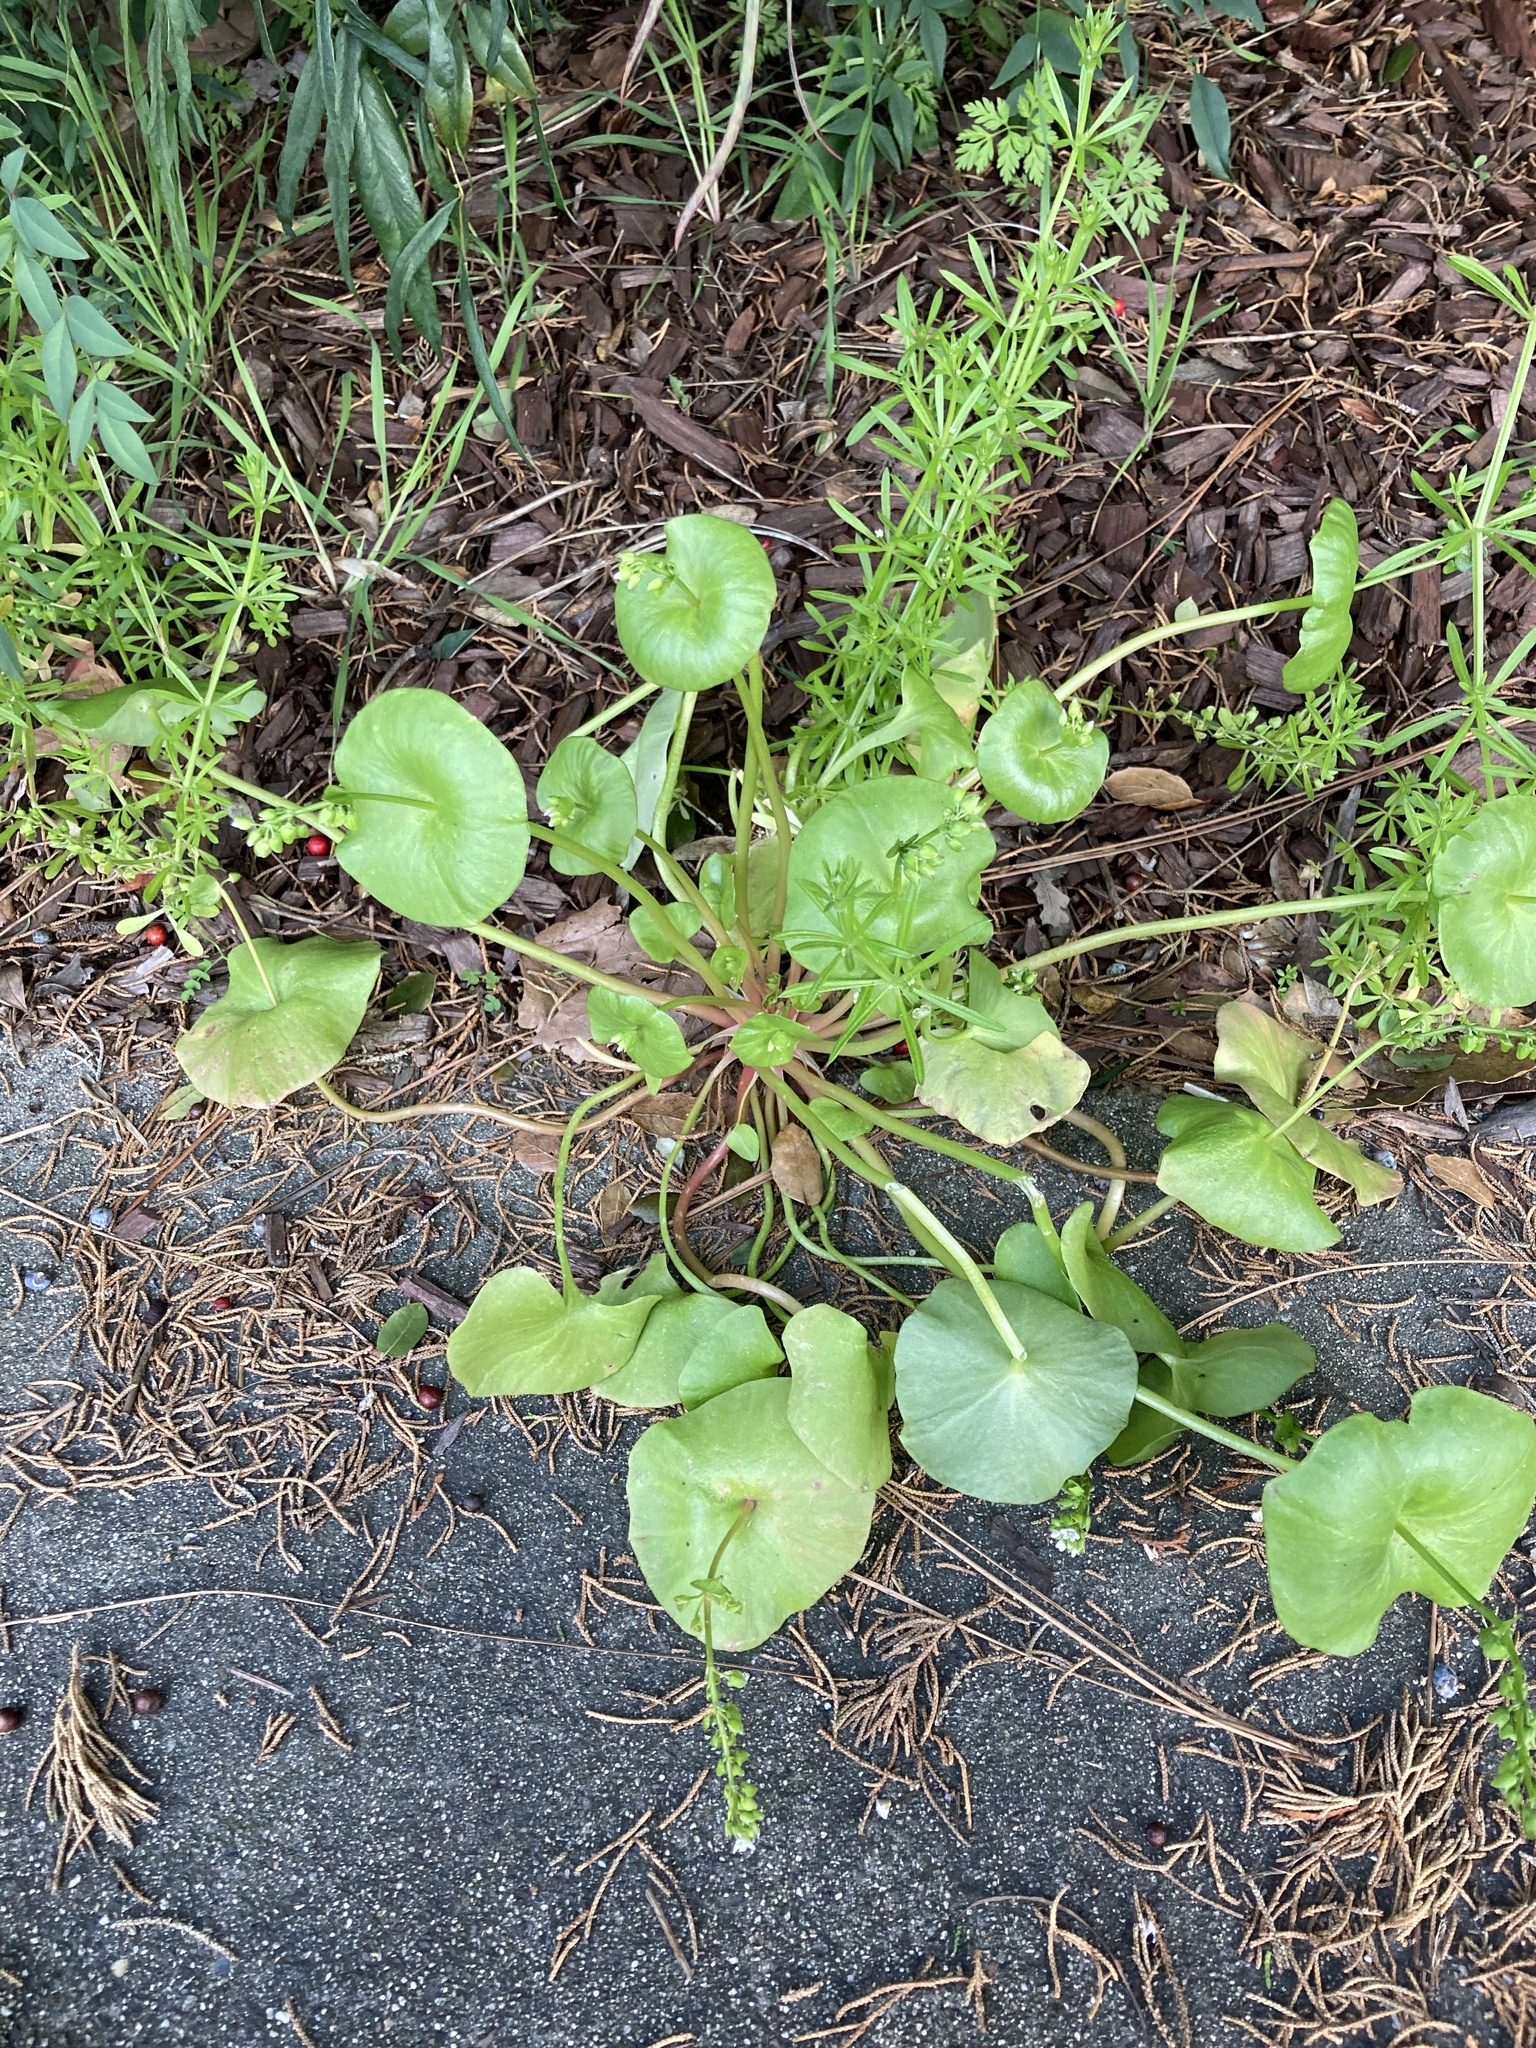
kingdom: Plantae
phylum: Tracheophyta
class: Magnoliopsida
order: Caryophyllales
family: Montiaceae
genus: Claytonia
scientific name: Claytonia perfoliata
